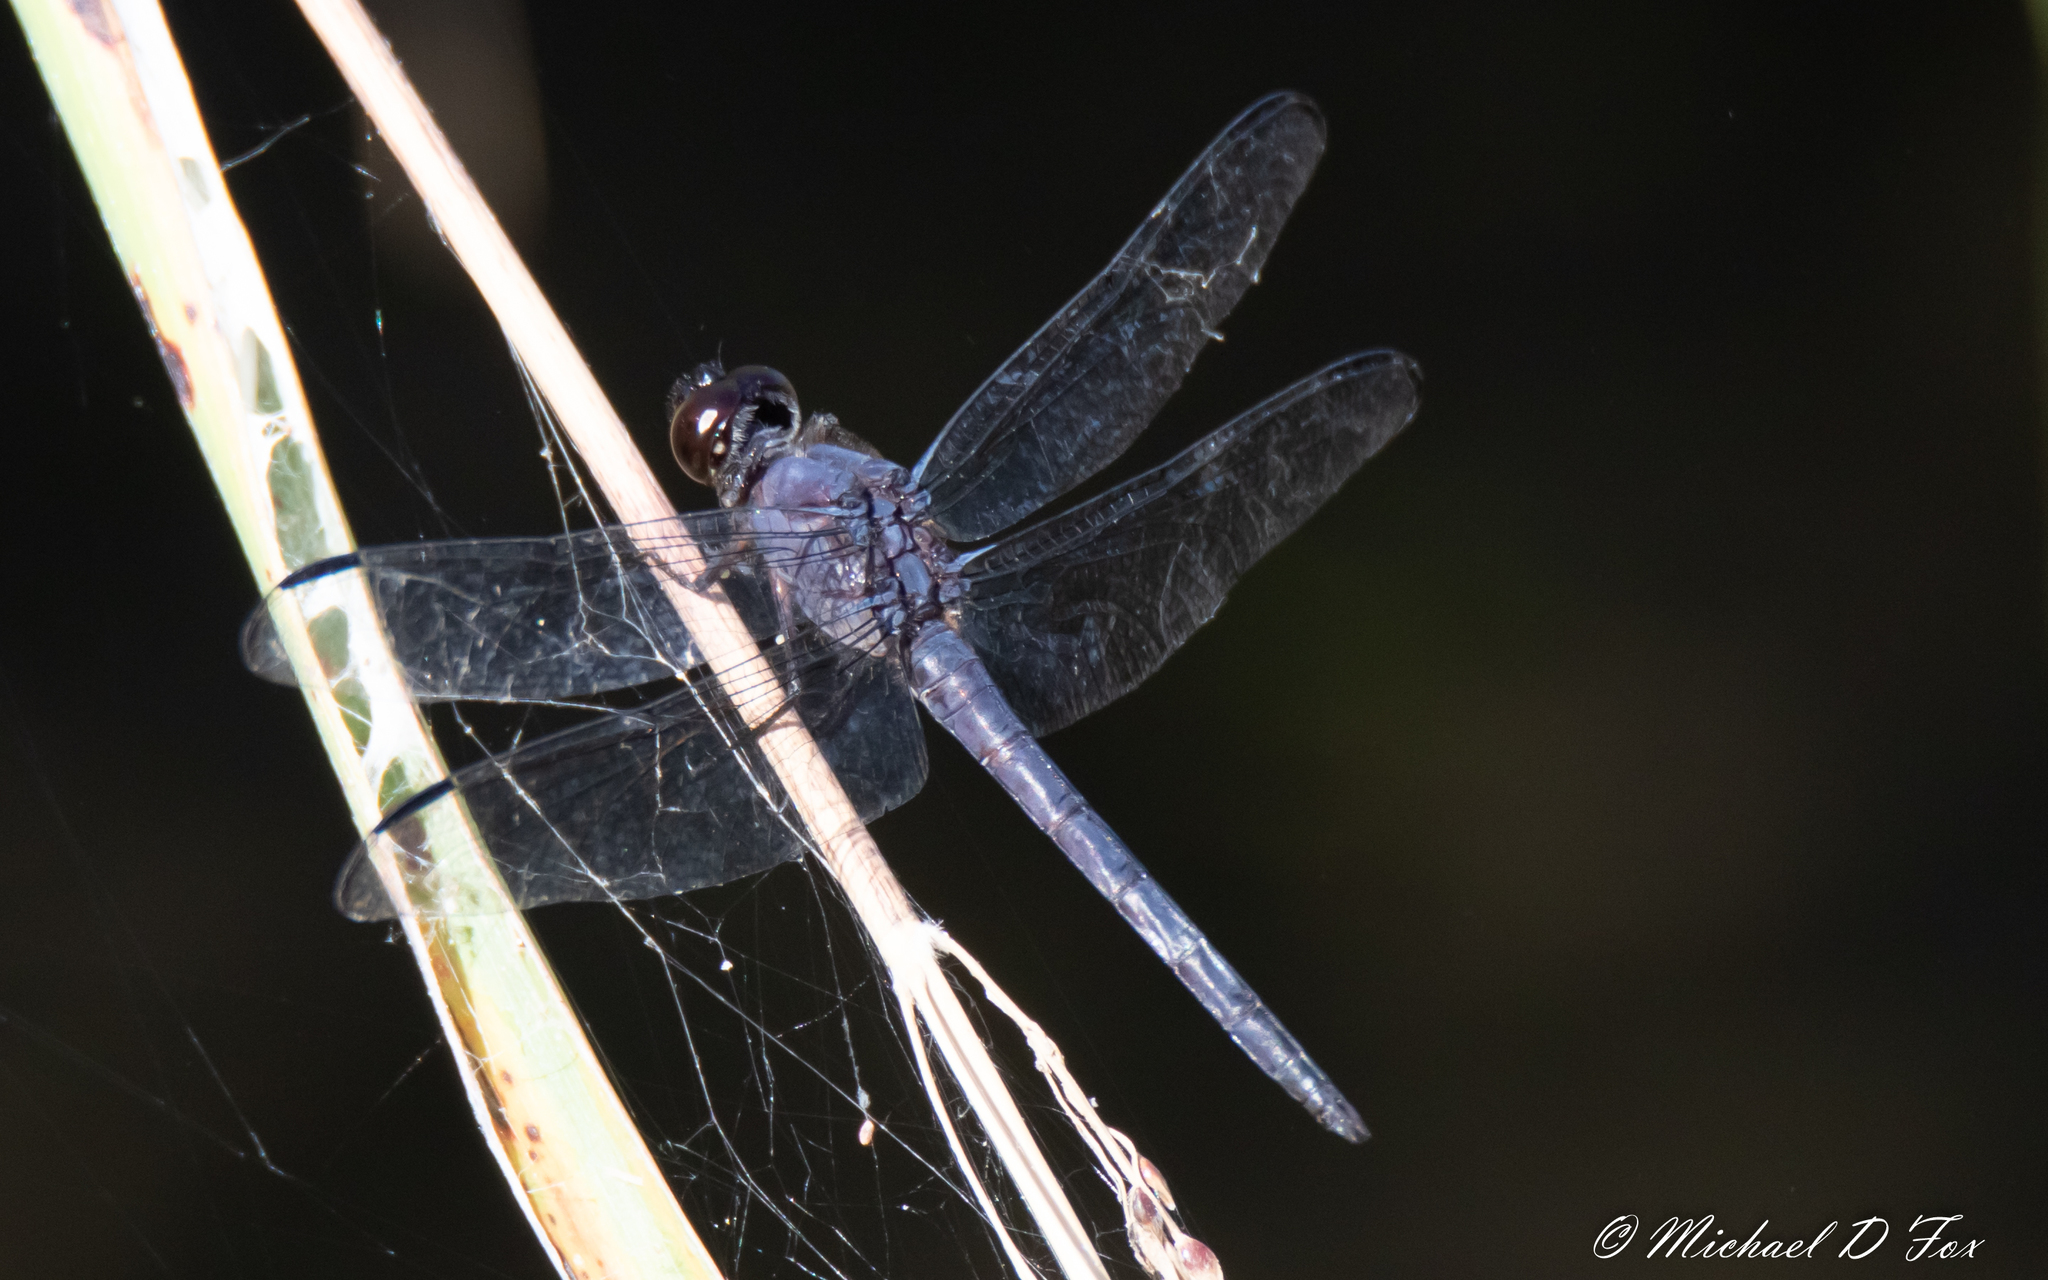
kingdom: Animalia
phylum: Arthropoda
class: Insecta
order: Odonata
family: Libellulidae
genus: Libellula
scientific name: Libellula incesta
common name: Slaty skimmer
